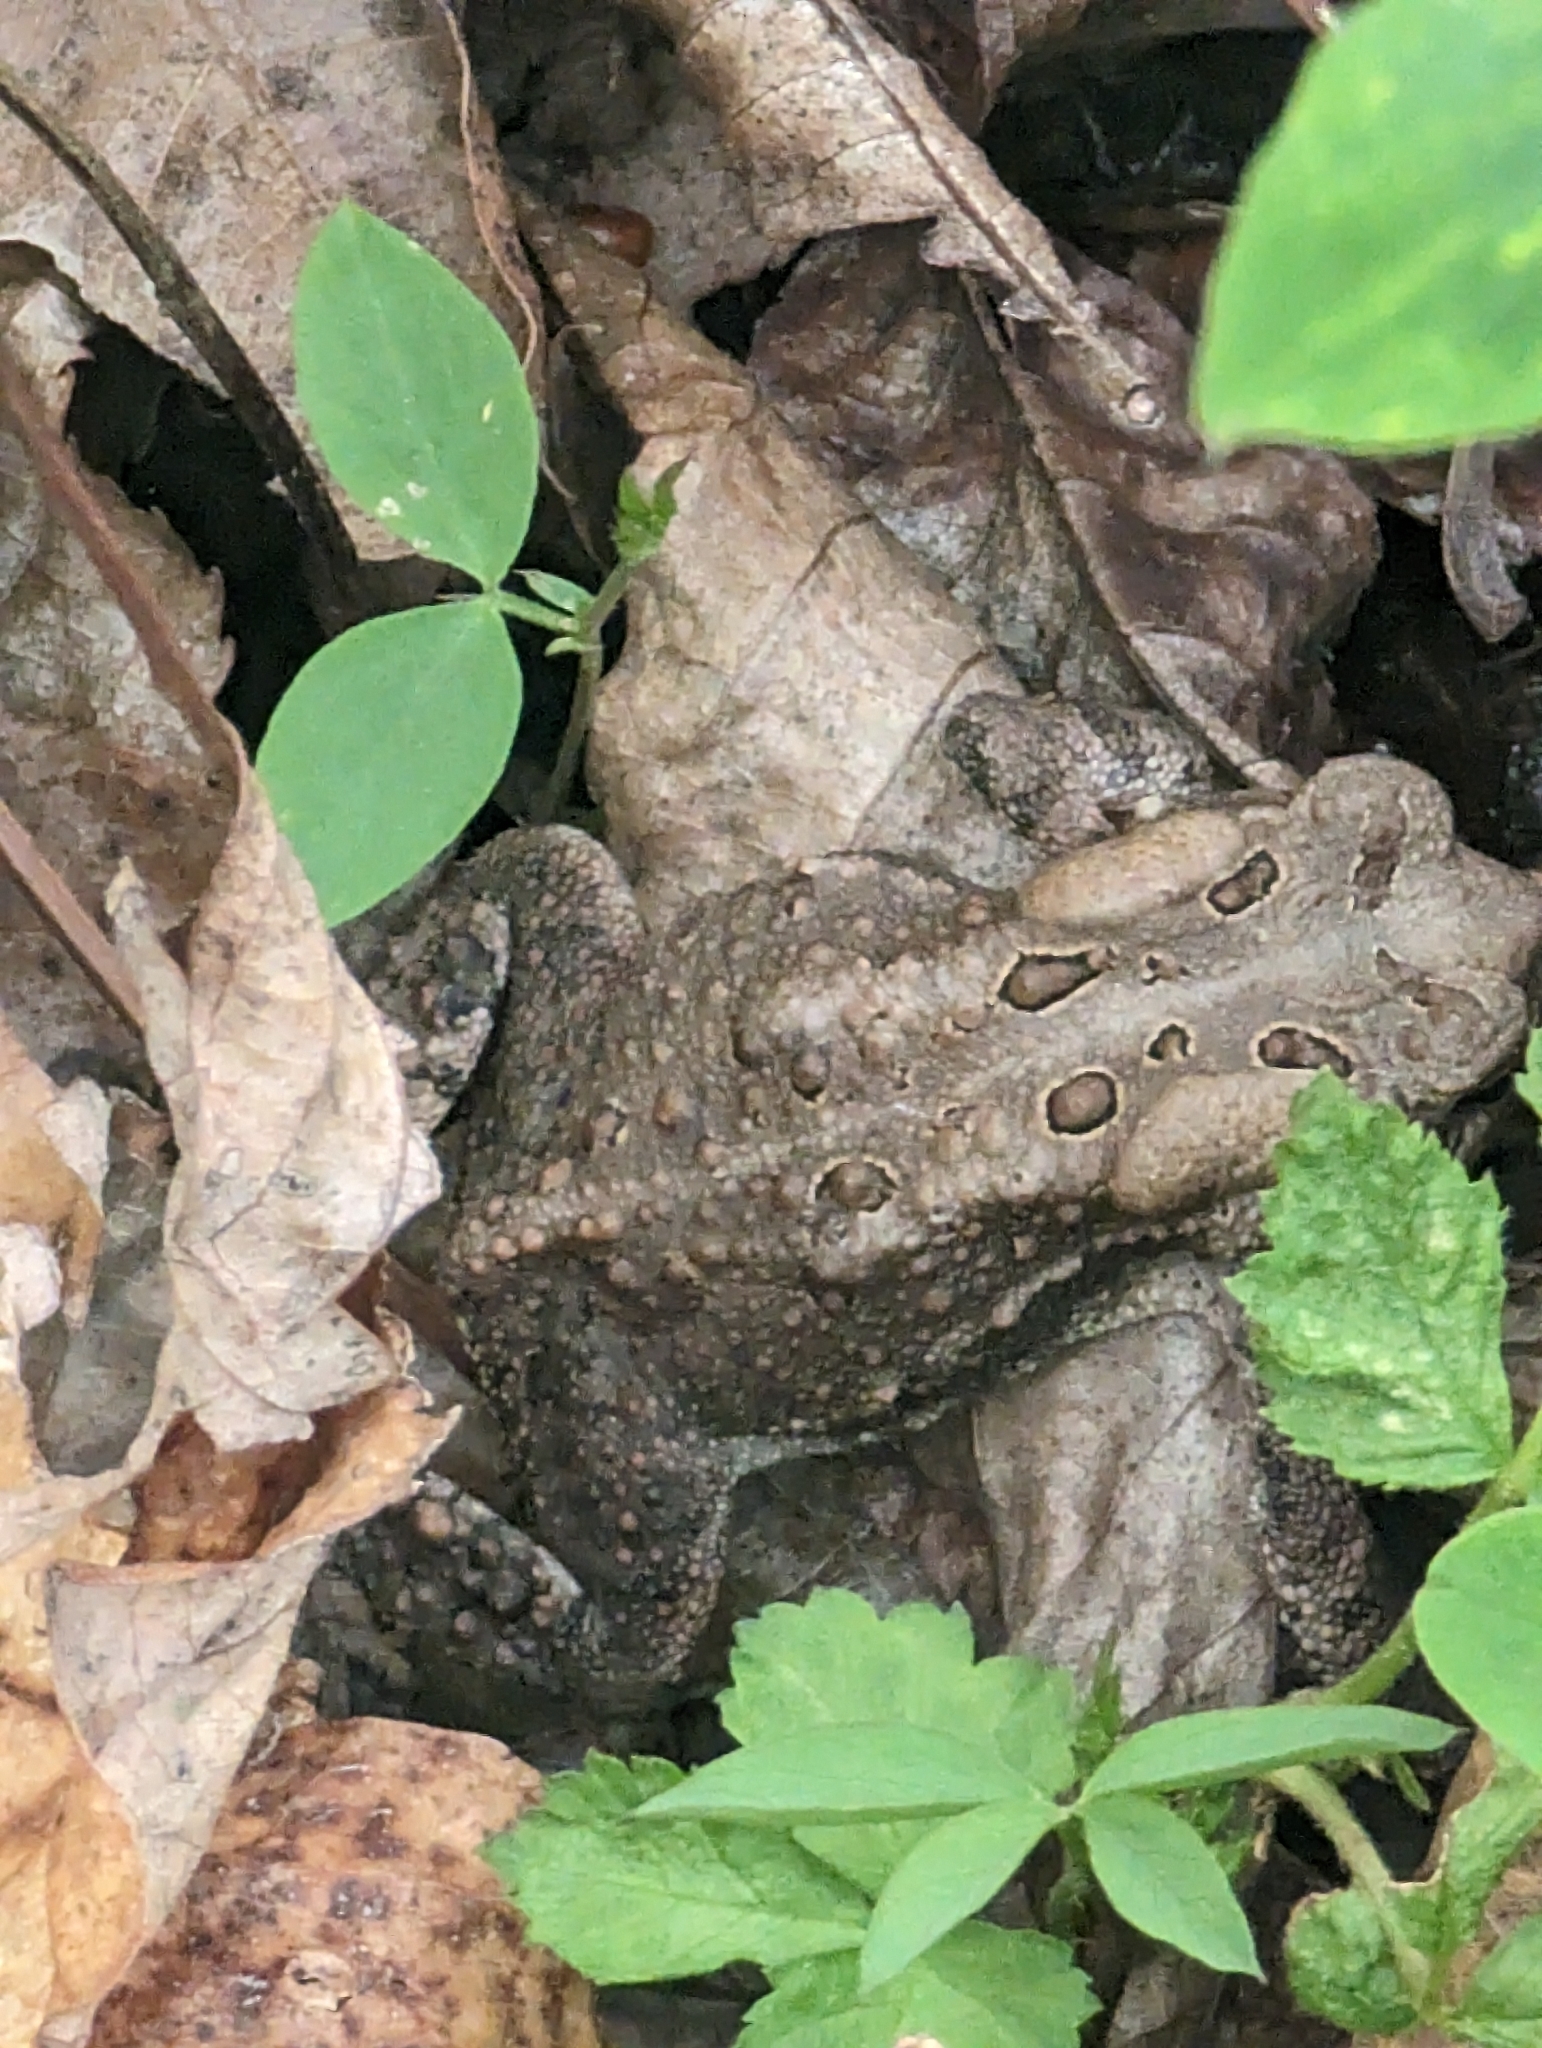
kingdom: Animalia
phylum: Chordata
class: Amphibia
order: Anura
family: Bufonidae
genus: Anaxyrus
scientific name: Anaxyrus americanus
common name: American toad
